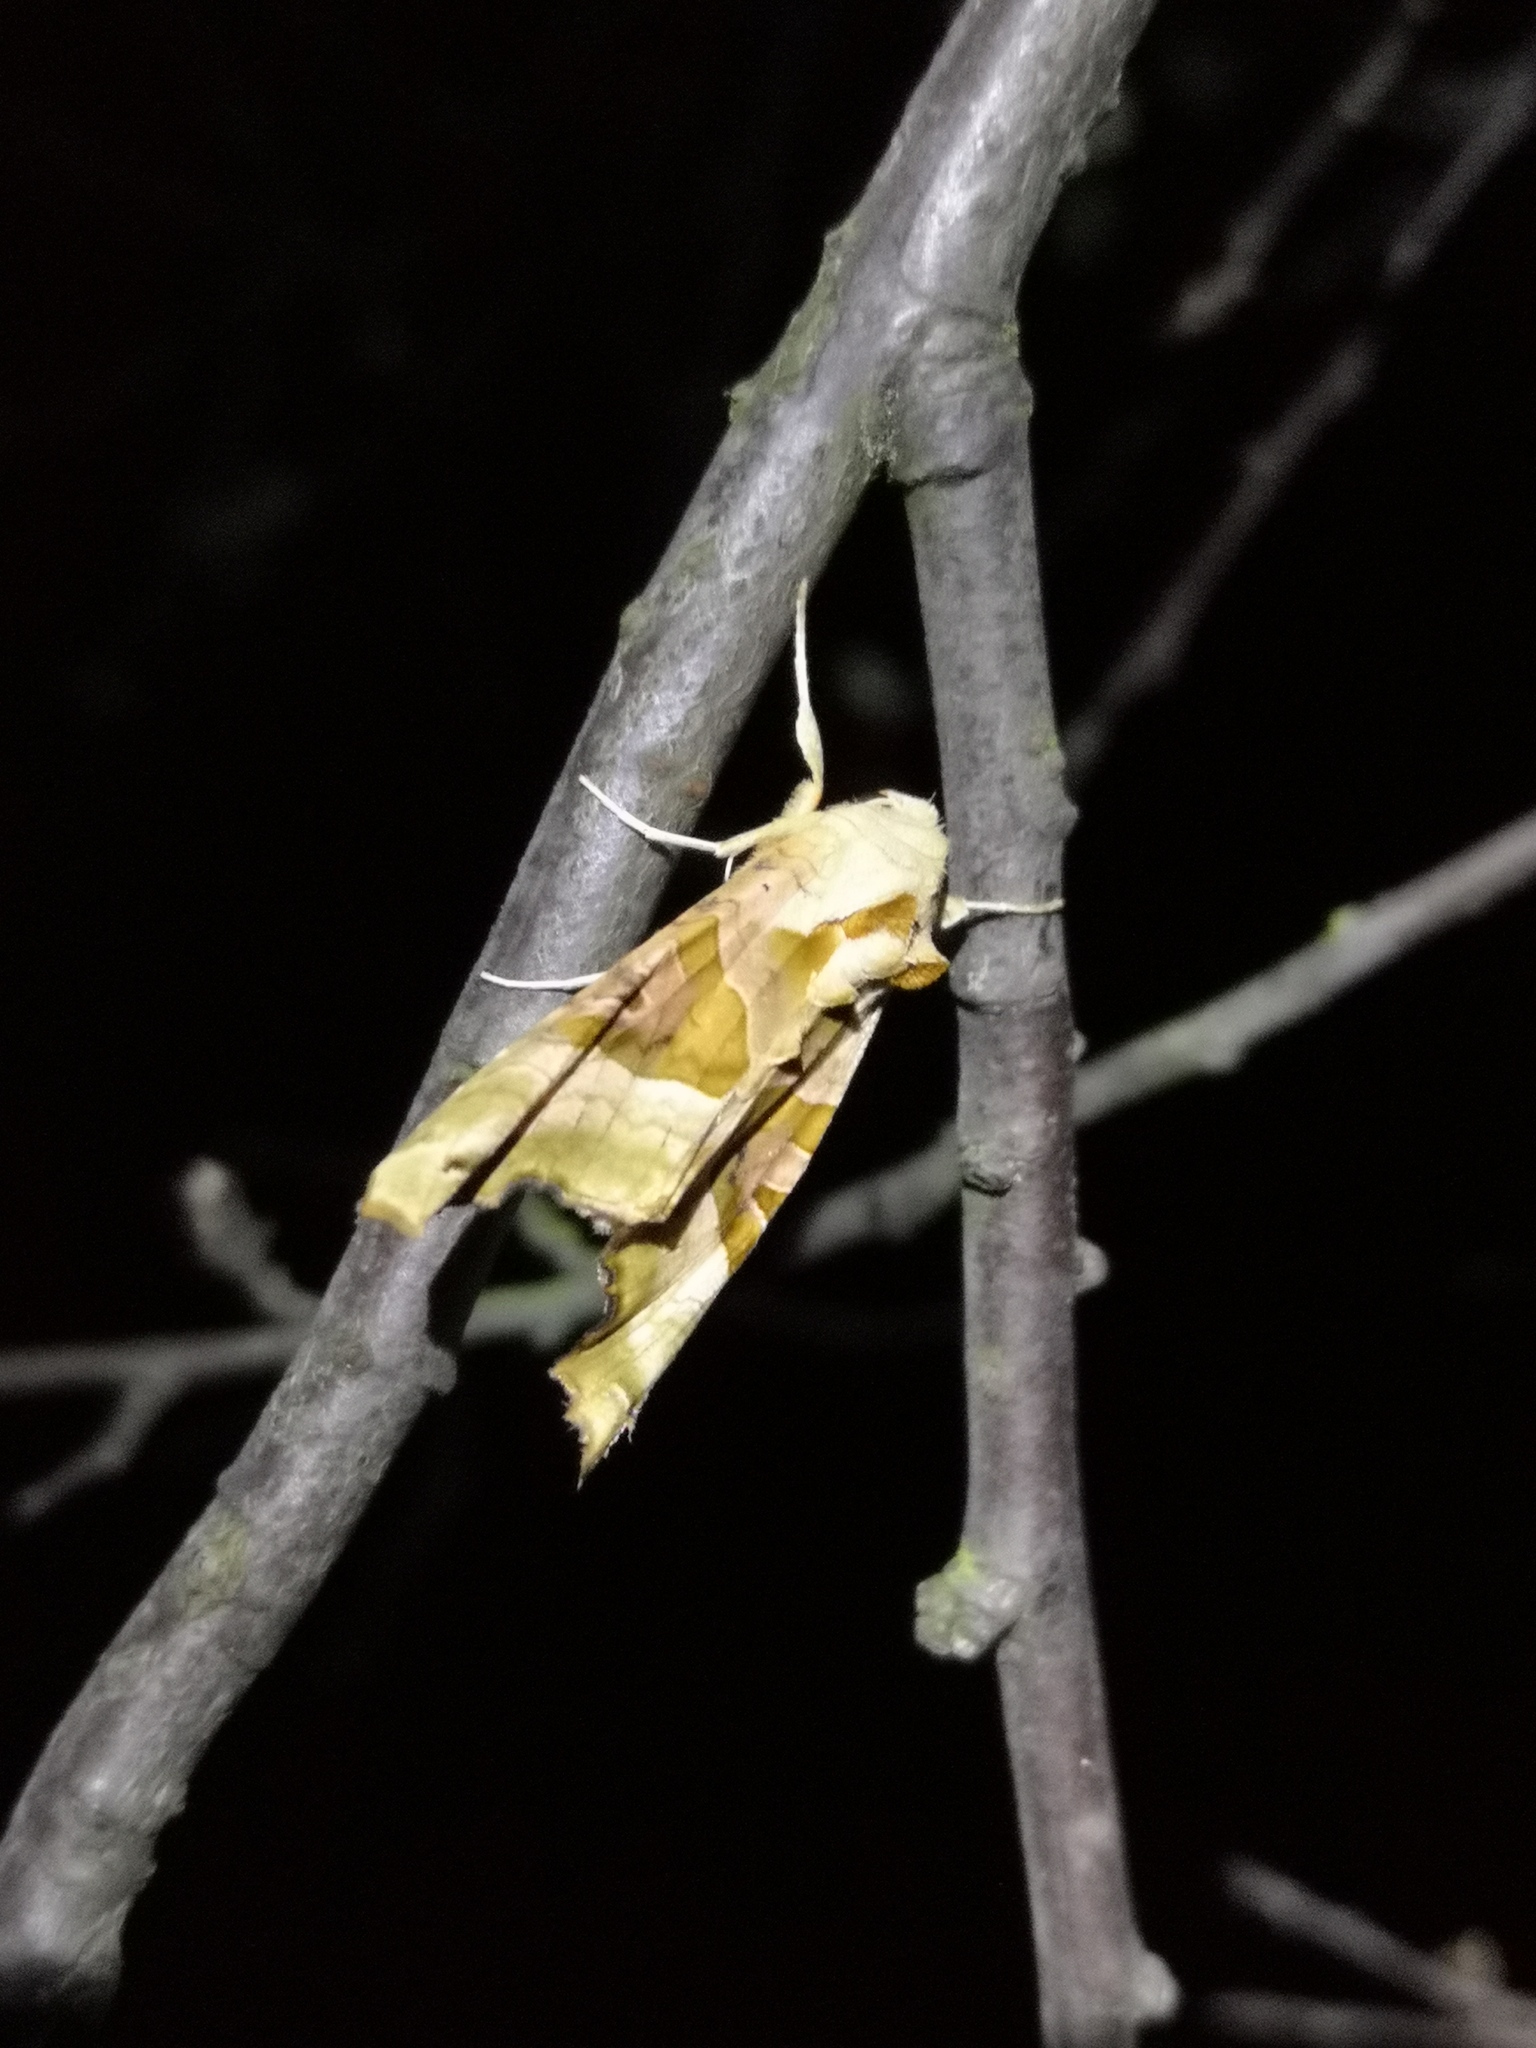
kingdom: Animalia
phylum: Arthropoda
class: Insecta
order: Lepidoptera
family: Noctuidae
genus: Phlogophora
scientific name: Phlogophora meticulosa
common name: Angle shades
